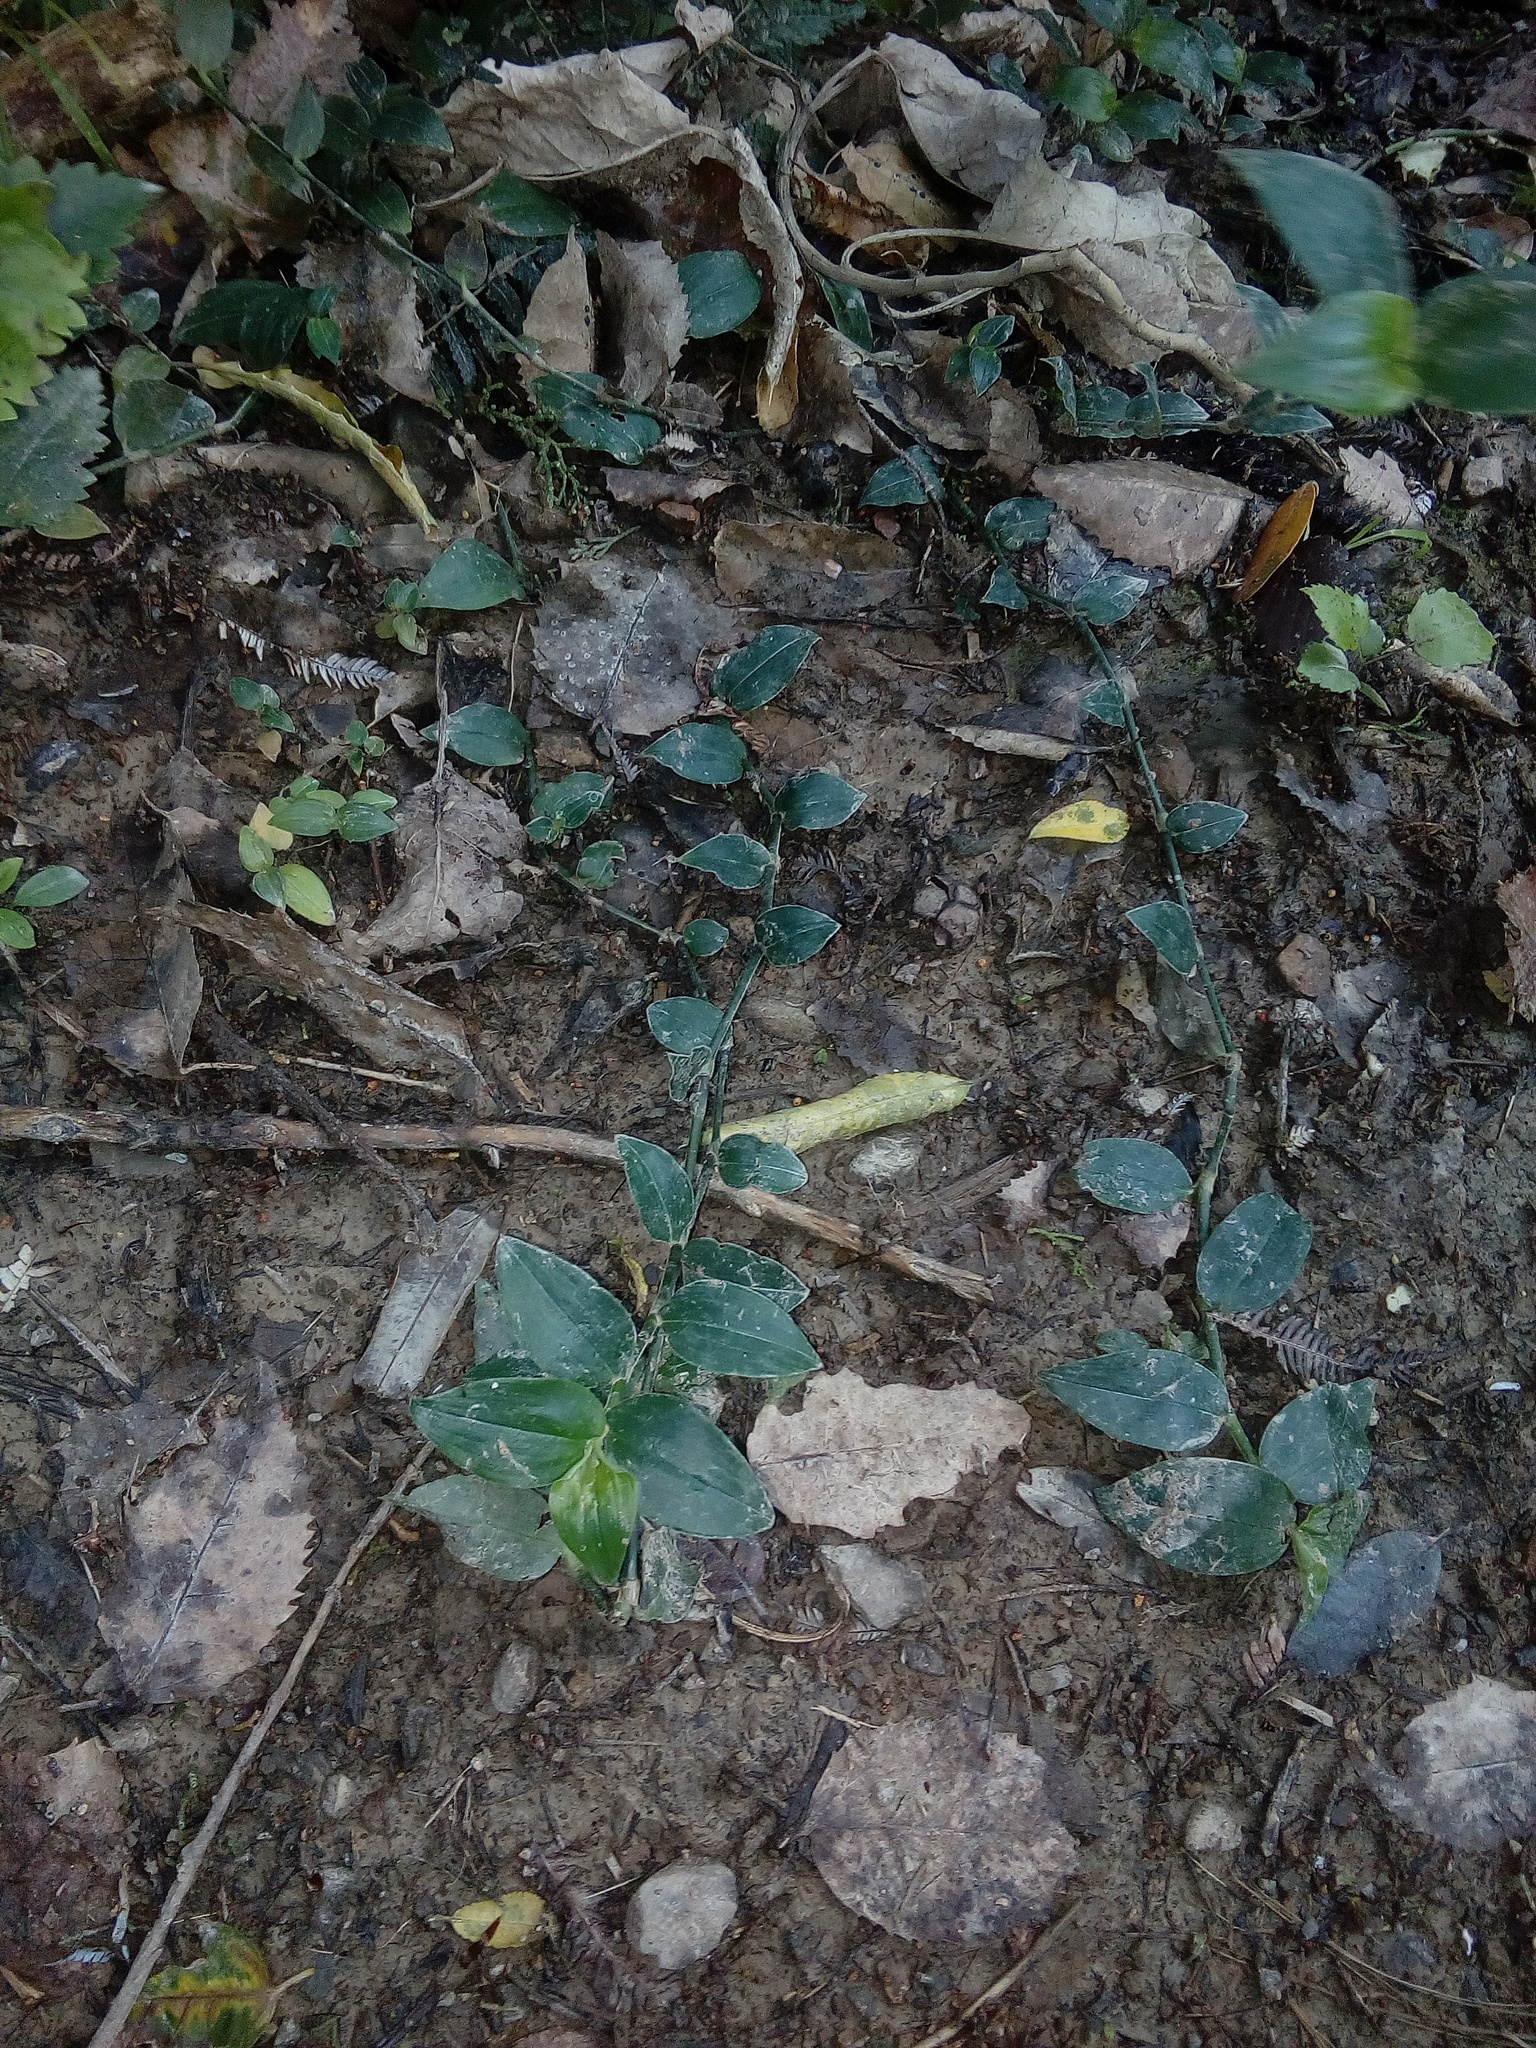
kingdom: Plantae
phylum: Tracheophyta
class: Liliopsida
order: Commelinales
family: Commelinaceae
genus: Tradescantia
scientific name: Tradescantia fluminensis
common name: Wandering-jew
